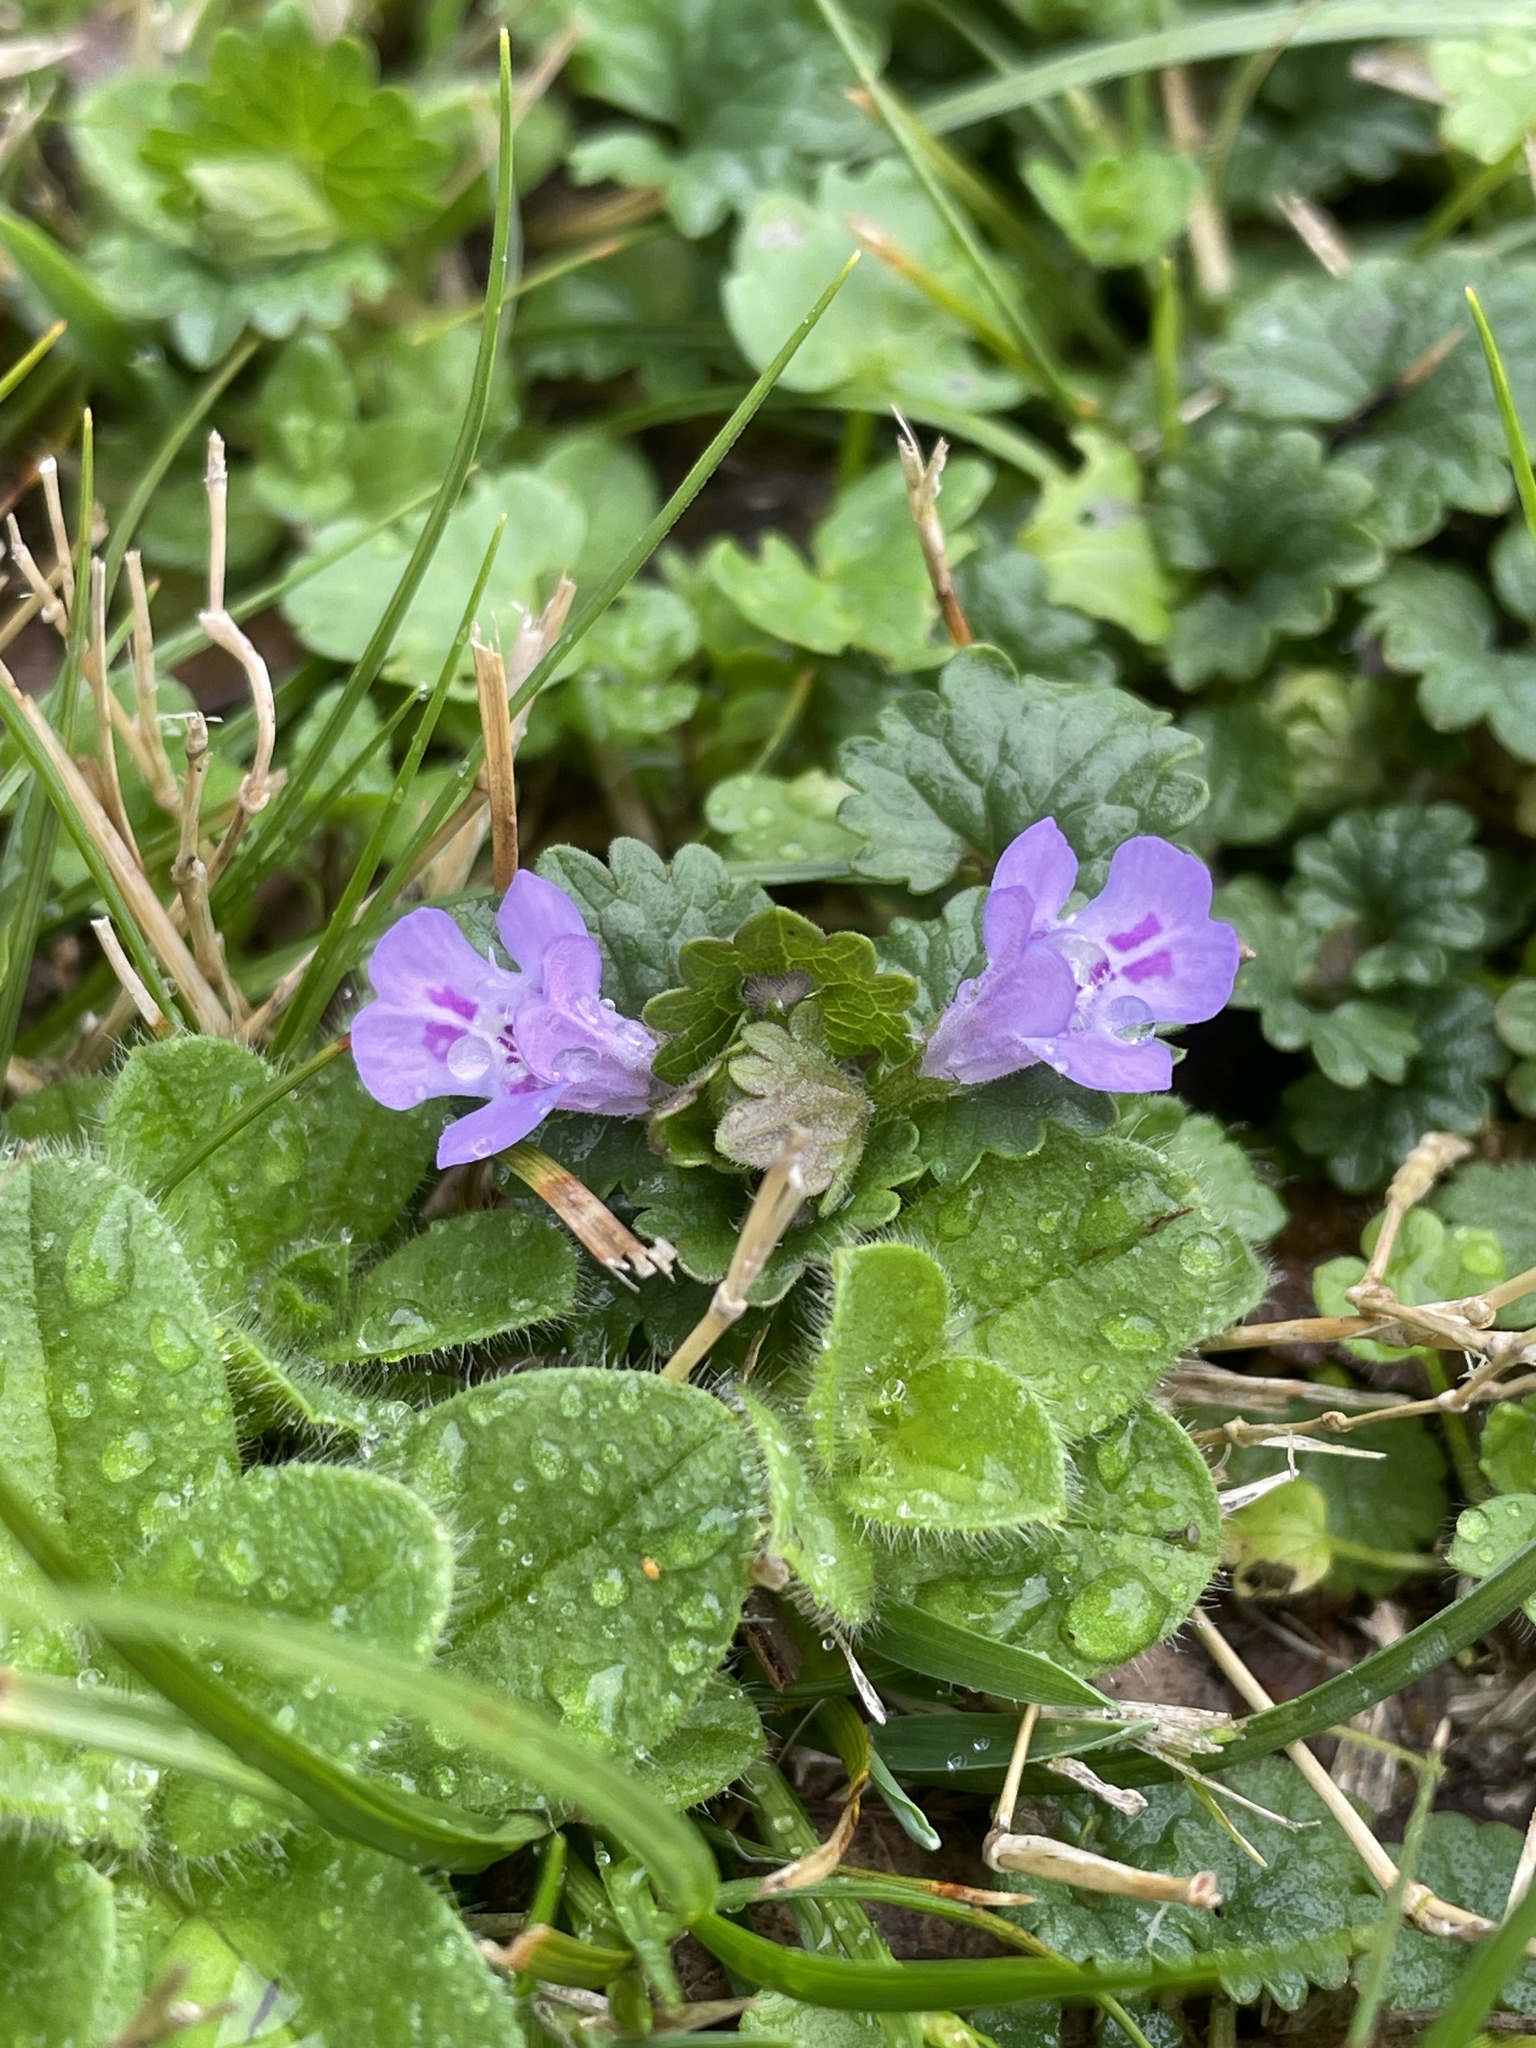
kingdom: Plantae
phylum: Tracheophyta
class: Magnoliopsida
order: Lamiales
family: Lamiaceae
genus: Glechoma
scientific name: Glechoma hederacea
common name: Ground ivy
